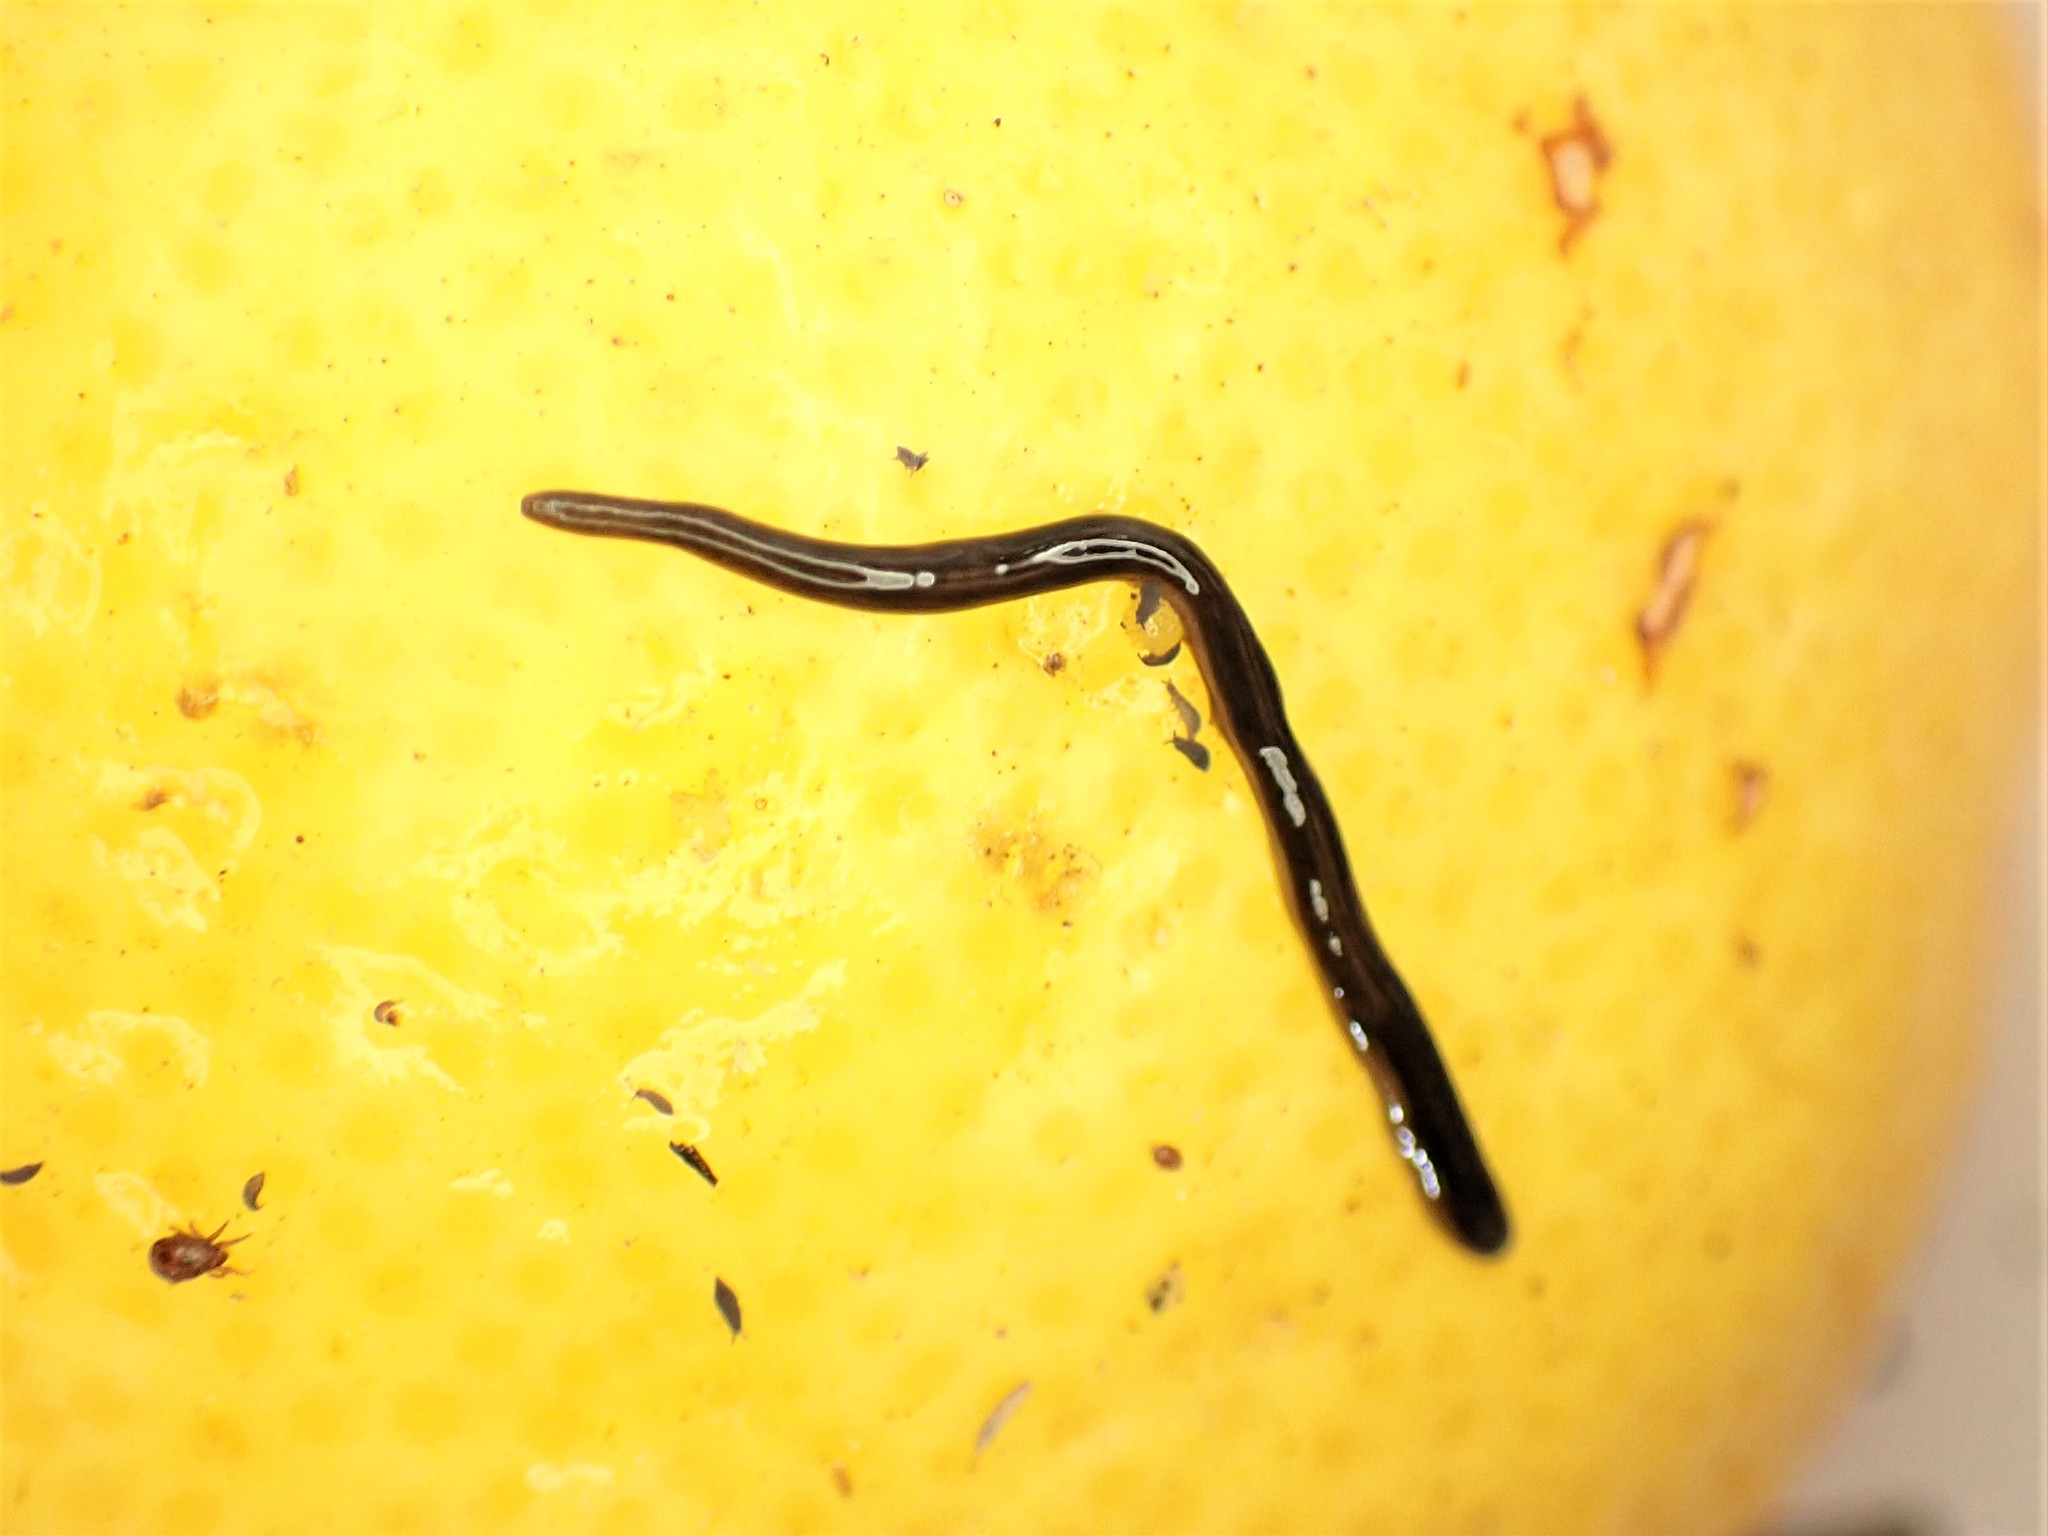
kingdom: Animalia
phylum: Platyhelminthes
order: Tricladida
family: Geoplanidae
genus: Parakontikia
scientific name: Parakontikia ventrolineata
